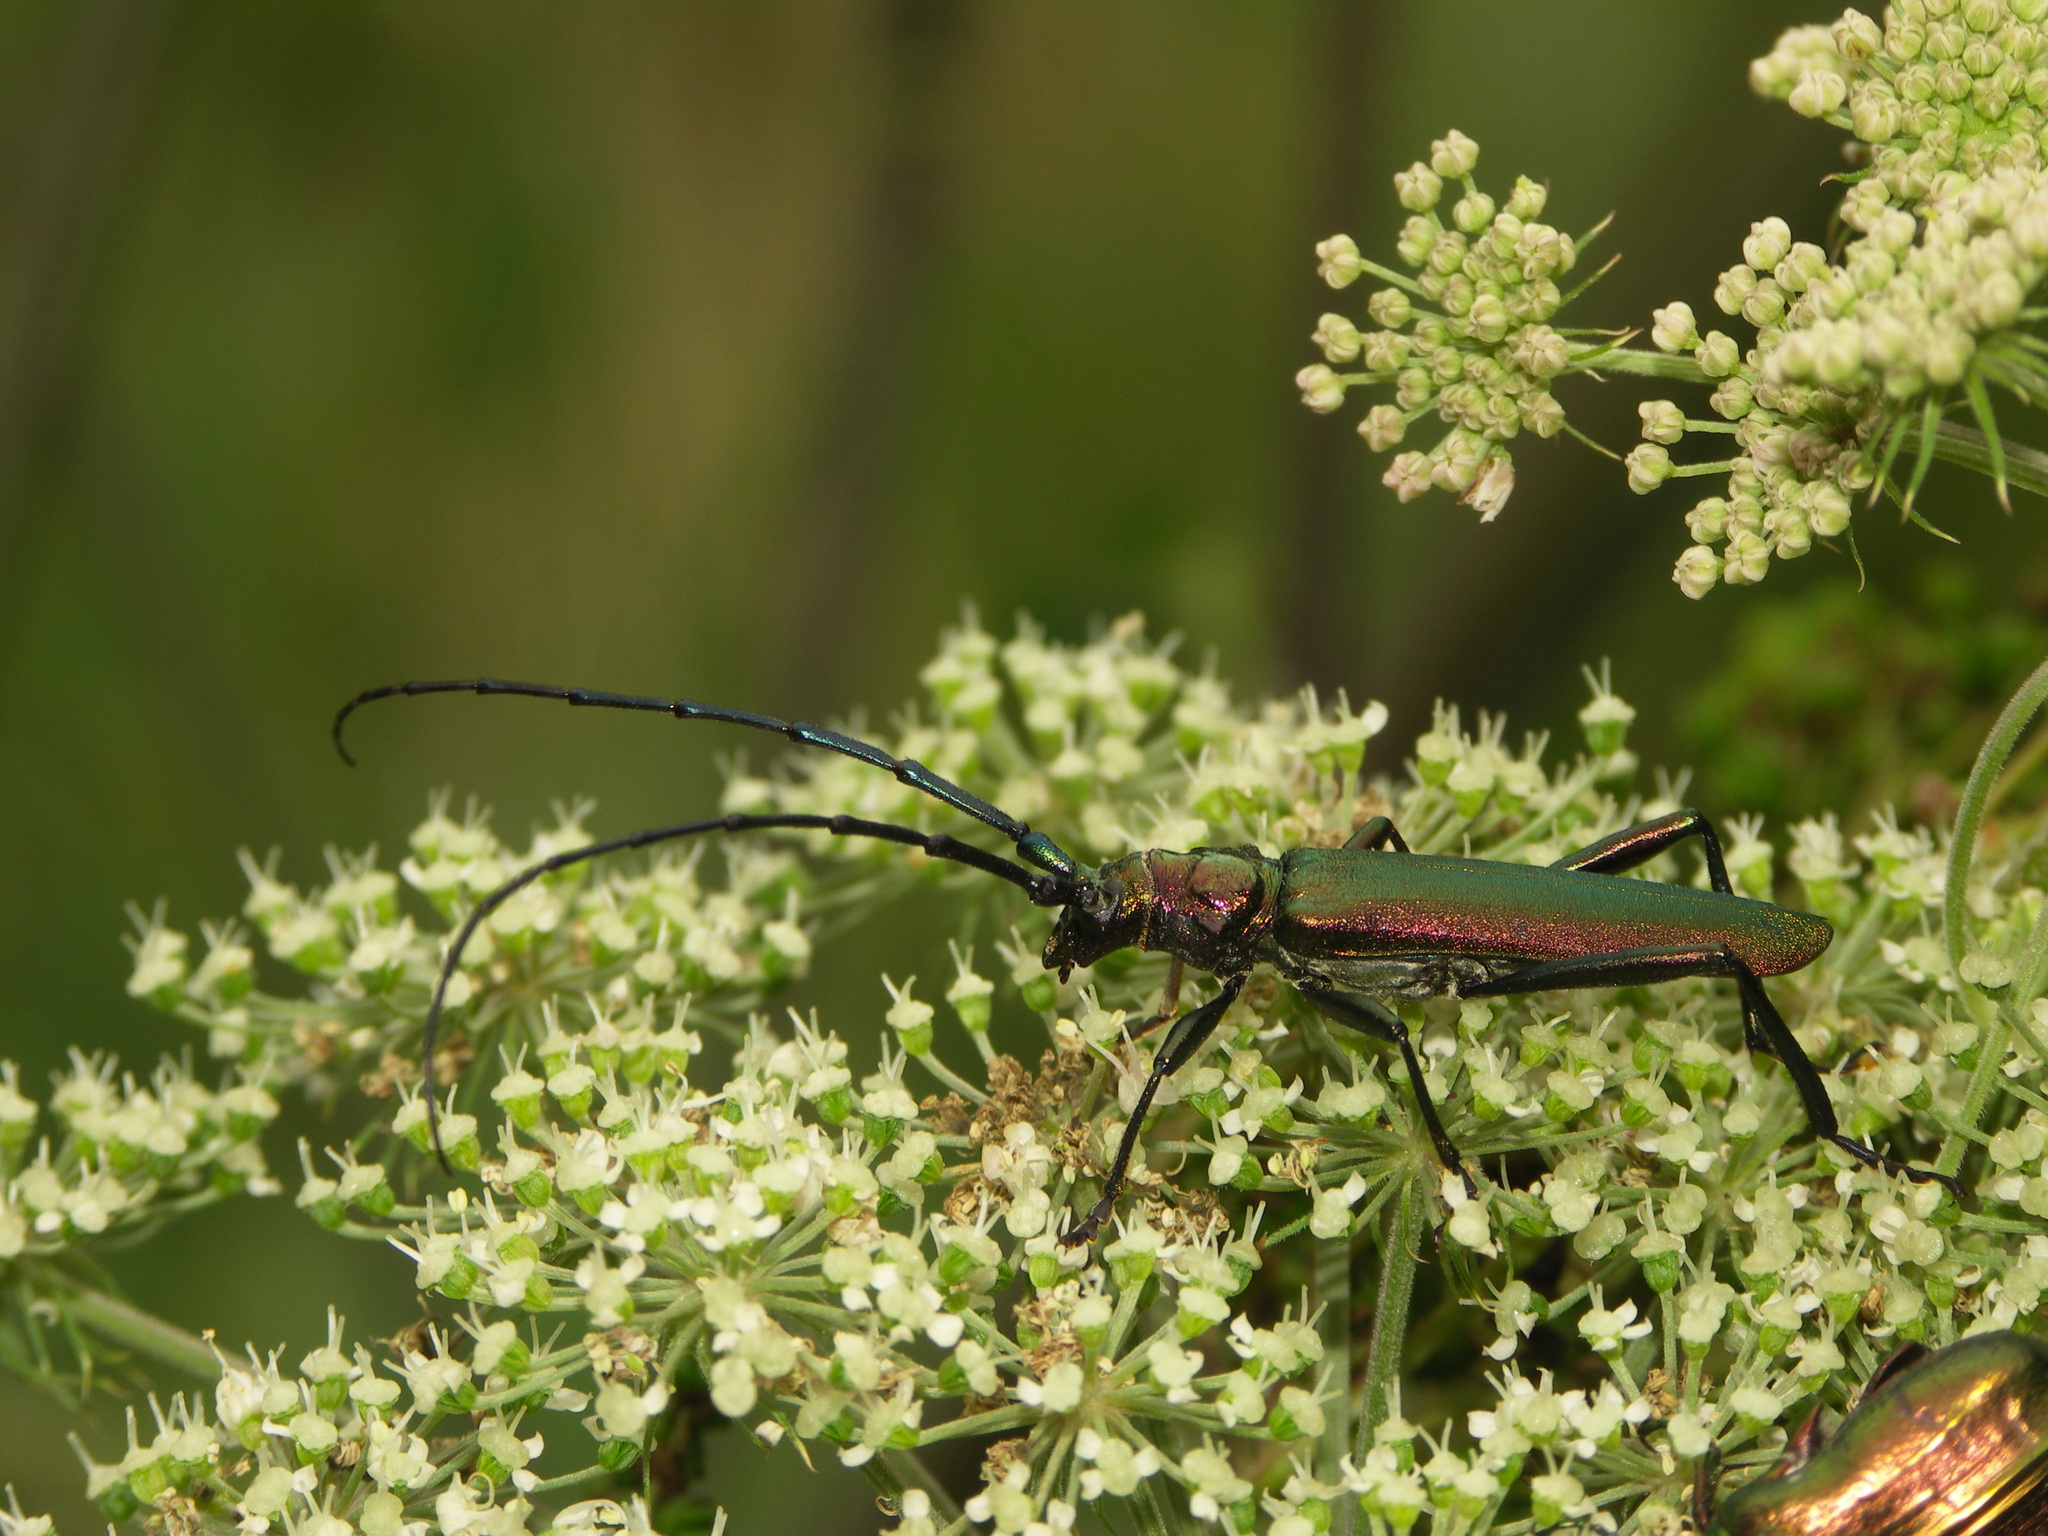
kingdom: Animalia
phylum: Arthropoda
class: Insecta
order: Coleoptera
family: Cerambycidae
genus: Aromia
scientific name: Aromia moschata
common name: Musk beetle
